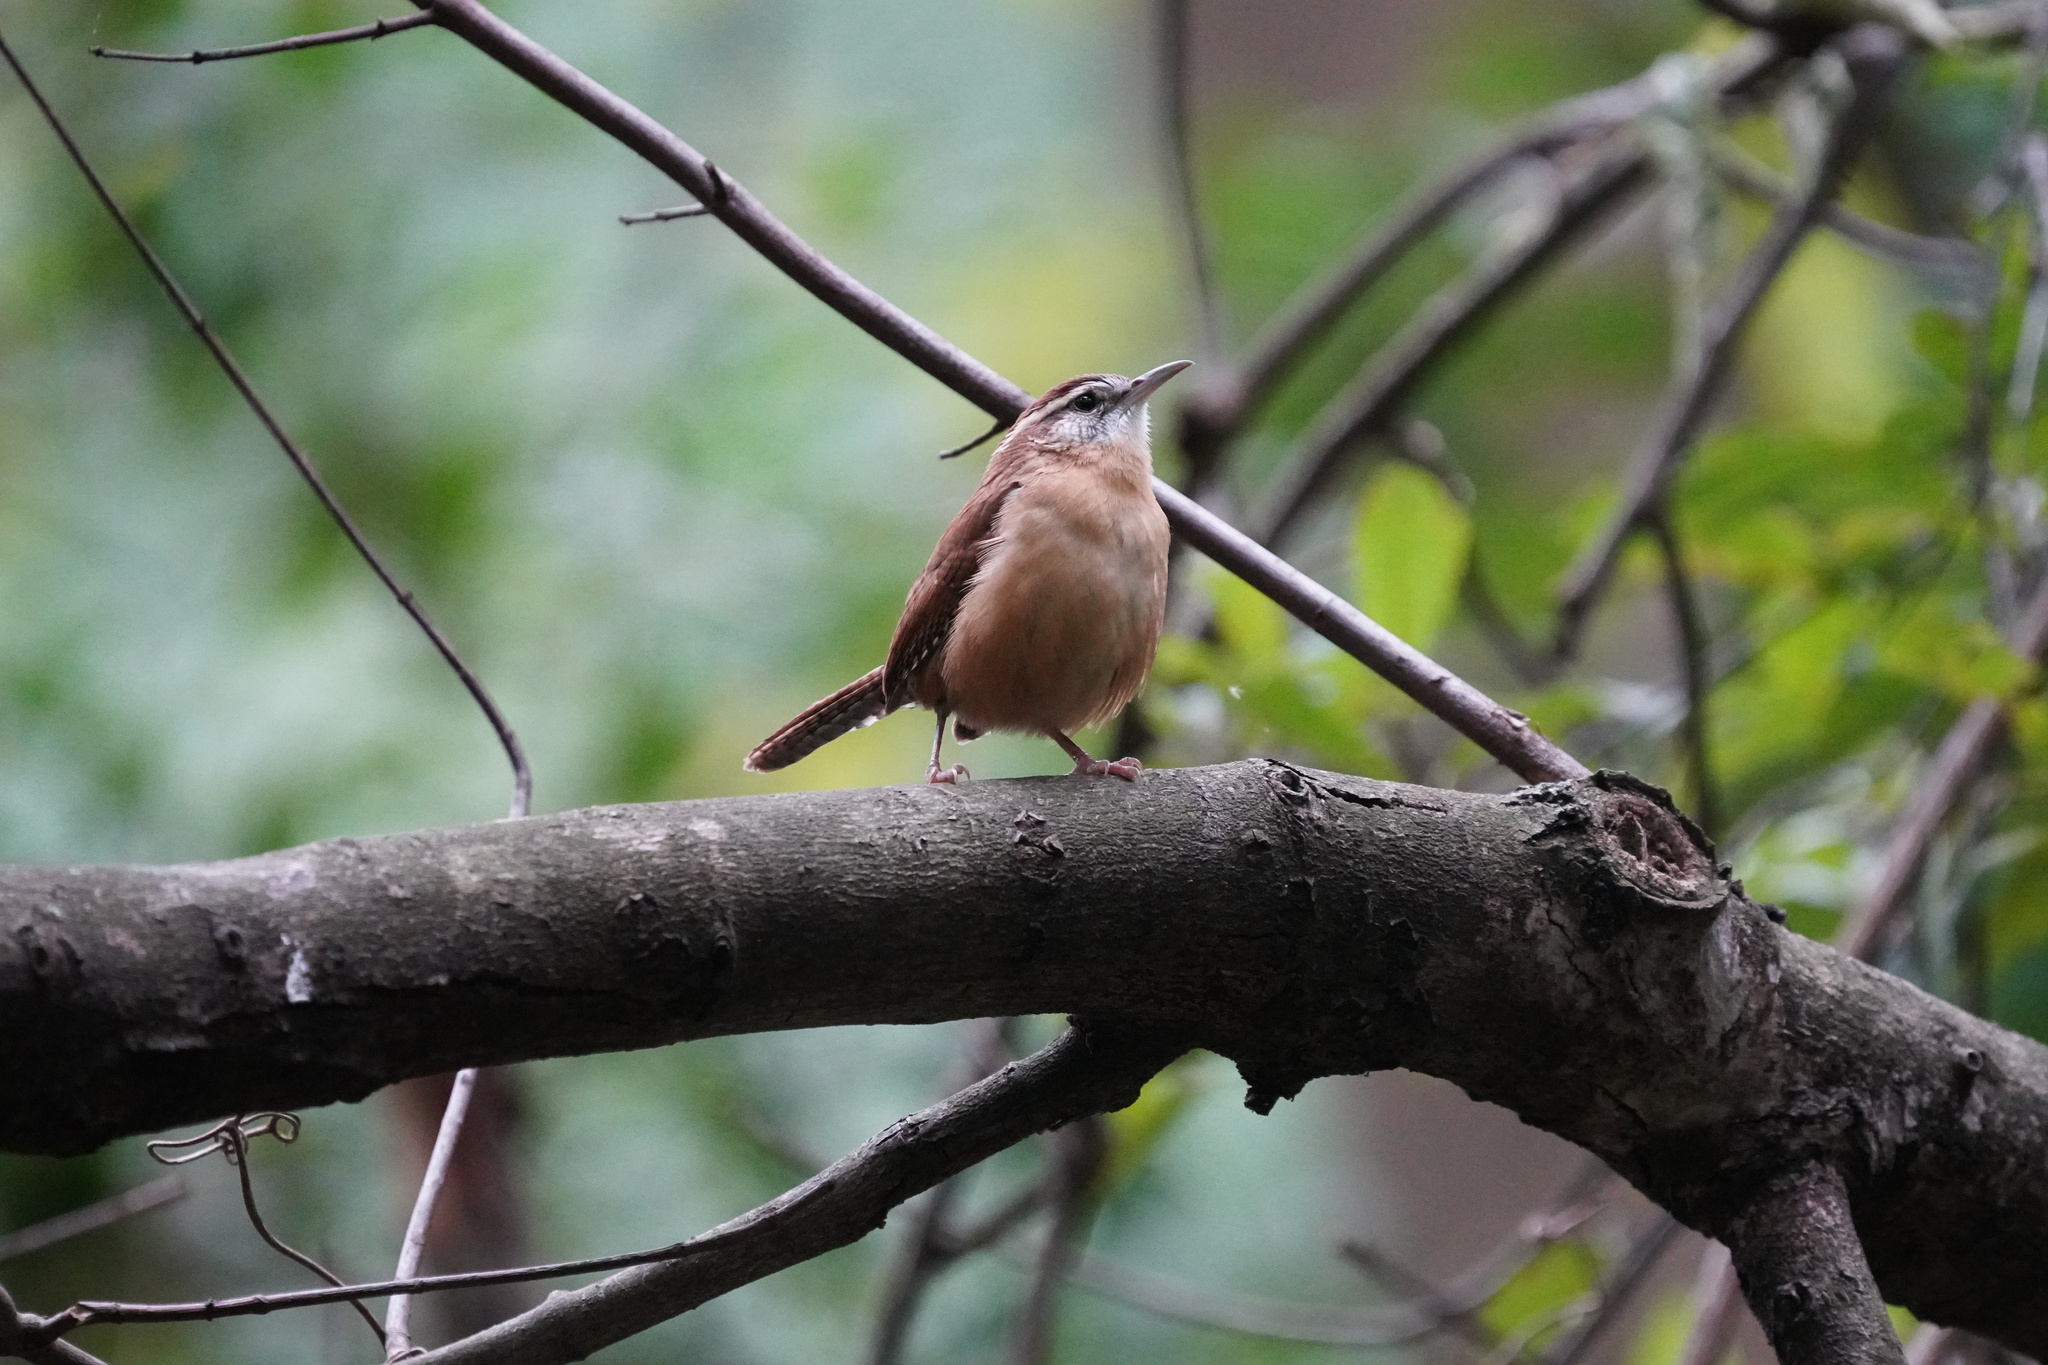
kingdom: Animalia
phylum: Chordata
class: Aves
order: Passeriformes
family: Troglodytidae
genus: Thryothorus
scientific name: Thryothorus ludovicianus
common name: Carolina wren
